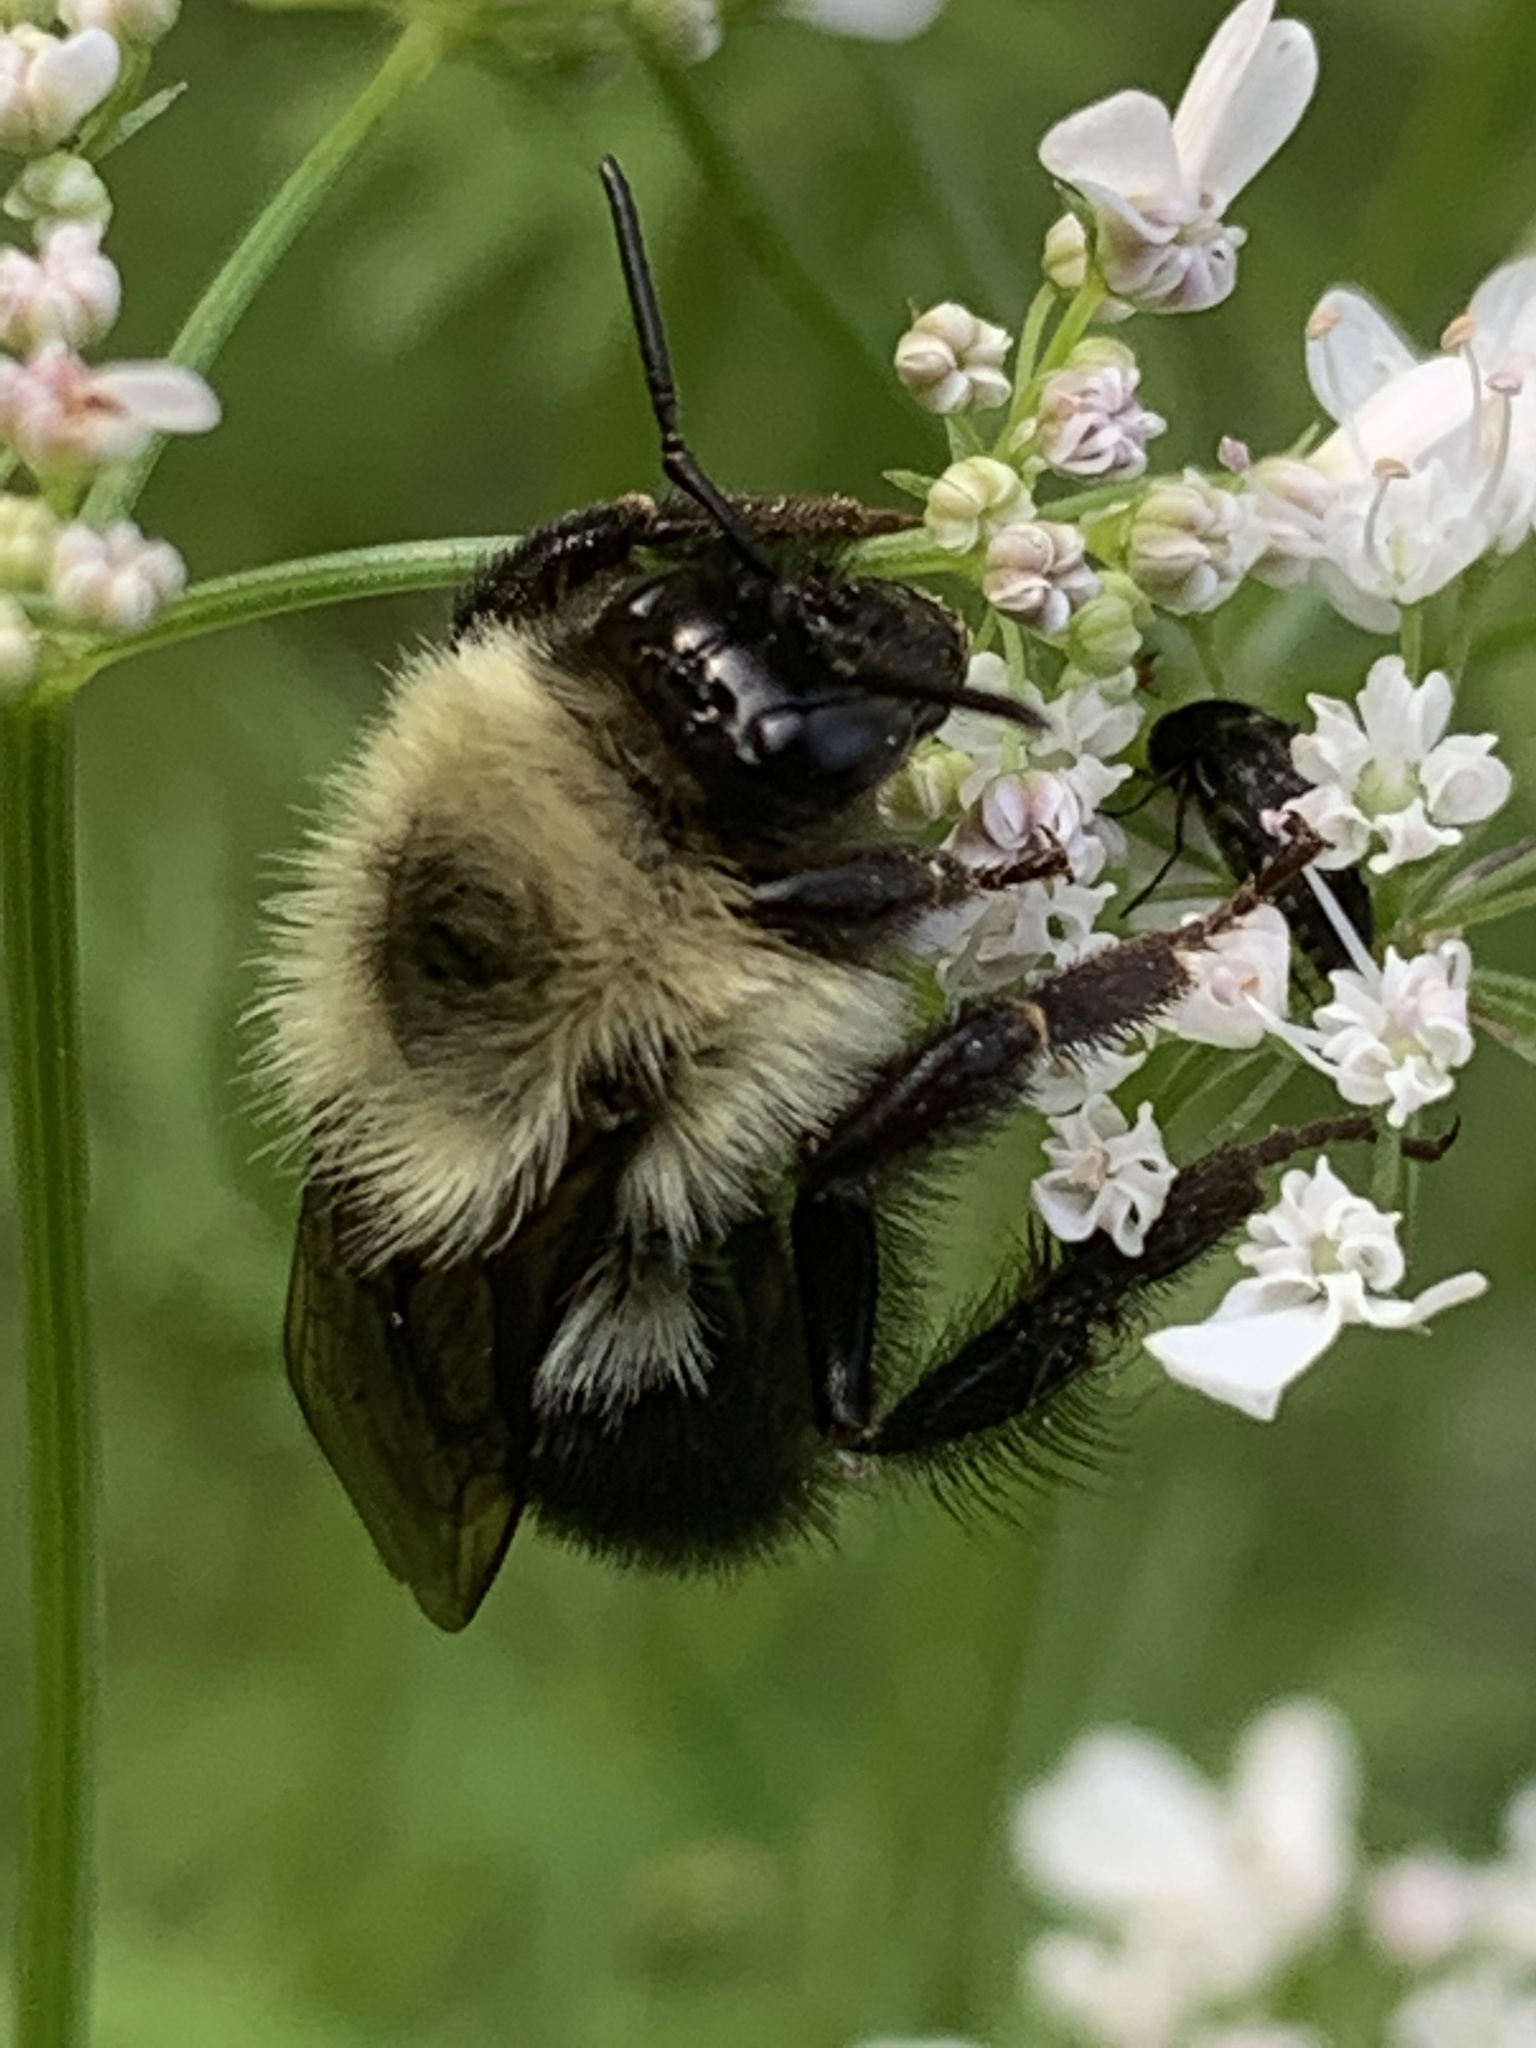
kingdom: Animalia
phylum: Arthropoda
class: Insecta
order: Hymenoptera
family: Apidae
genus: Bombus
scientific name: Bombus bimaculatus
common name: Two-spotted bumble bee
